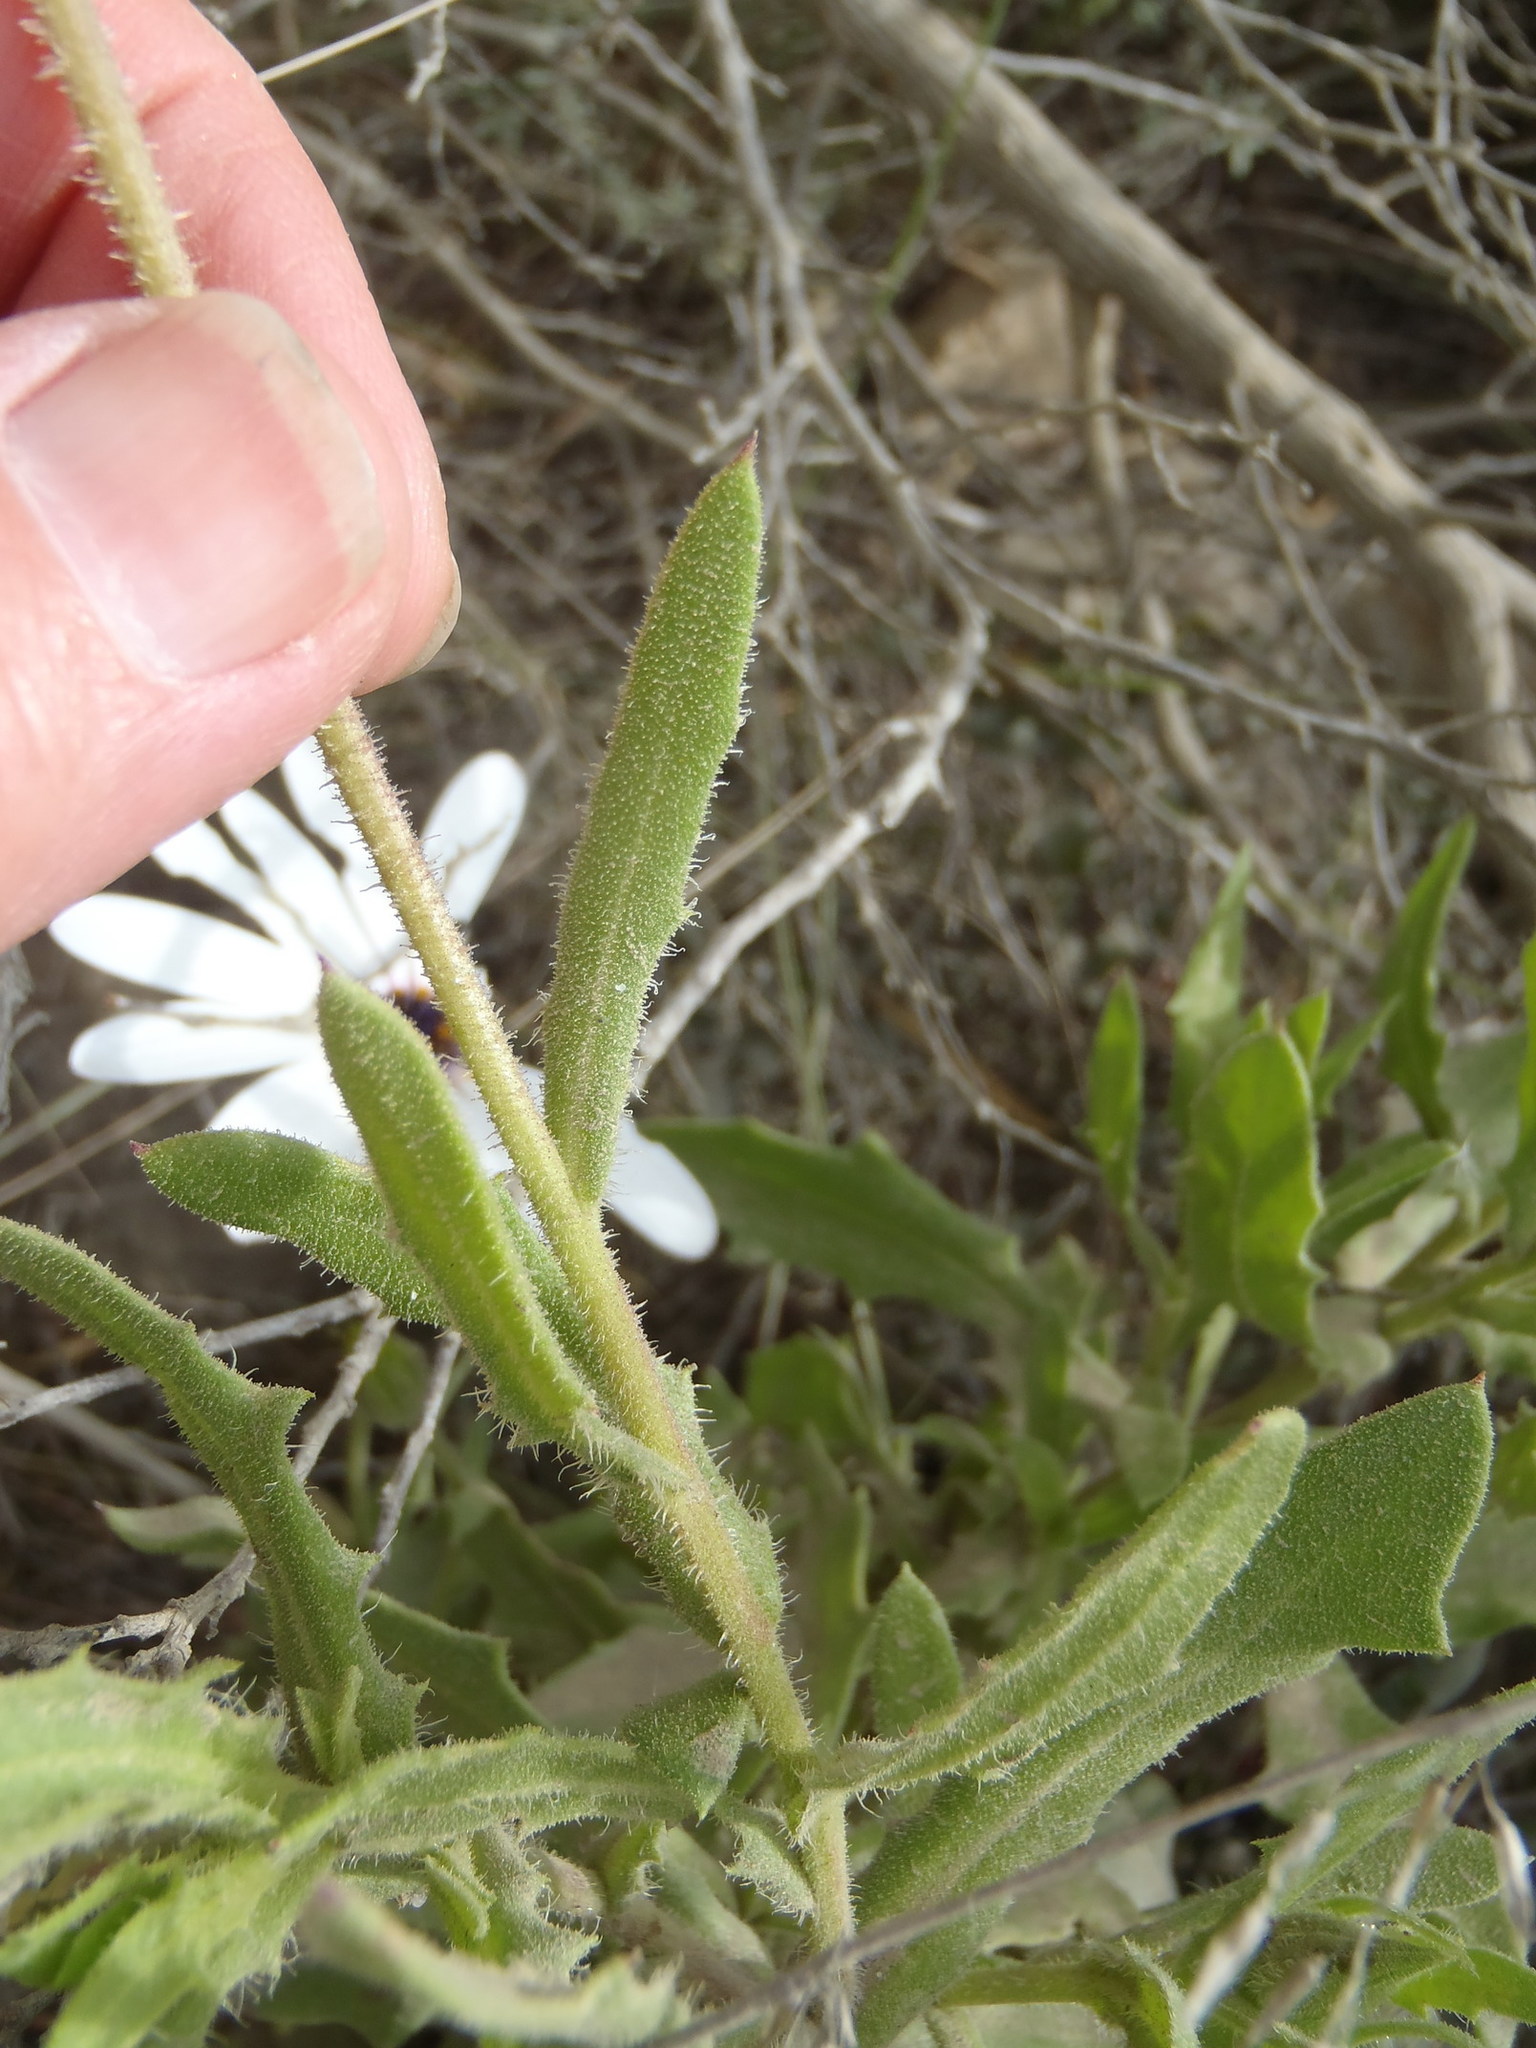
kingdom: Plantae
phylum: Tracheophyta
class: Magnoliopsida
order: Asterales
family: Asteraceae
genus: Dimorphotheca
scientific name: Dimorphotheca montana
